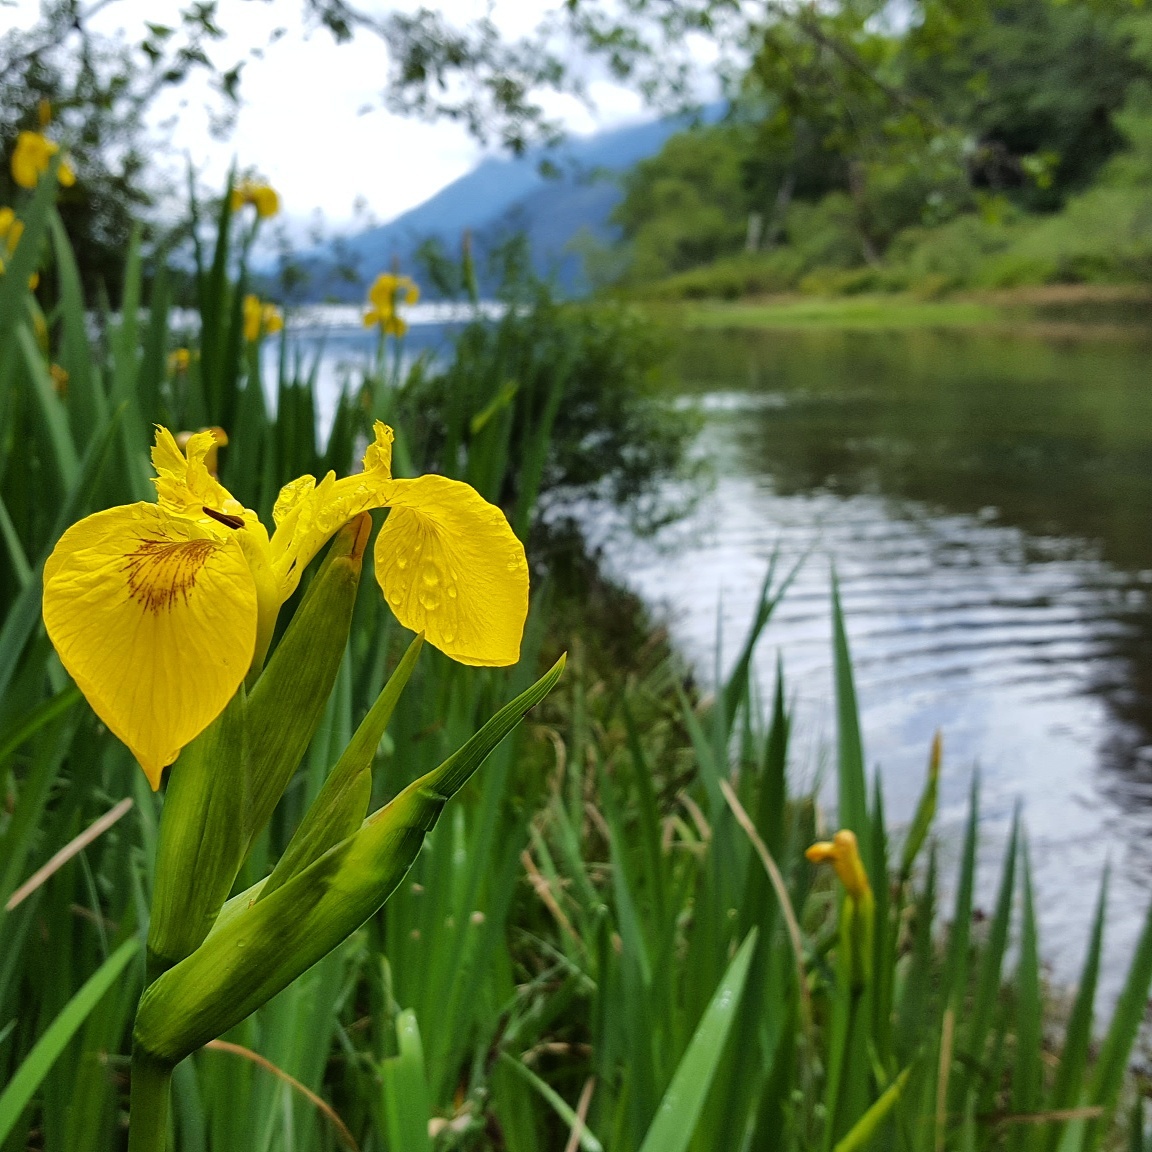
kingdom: Plantae
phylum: Tracheophyta
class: Liliopsida
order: Asparagales
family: Iridaceae
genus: Iris
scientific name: Iris pseudacorus
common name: Yellow flag
